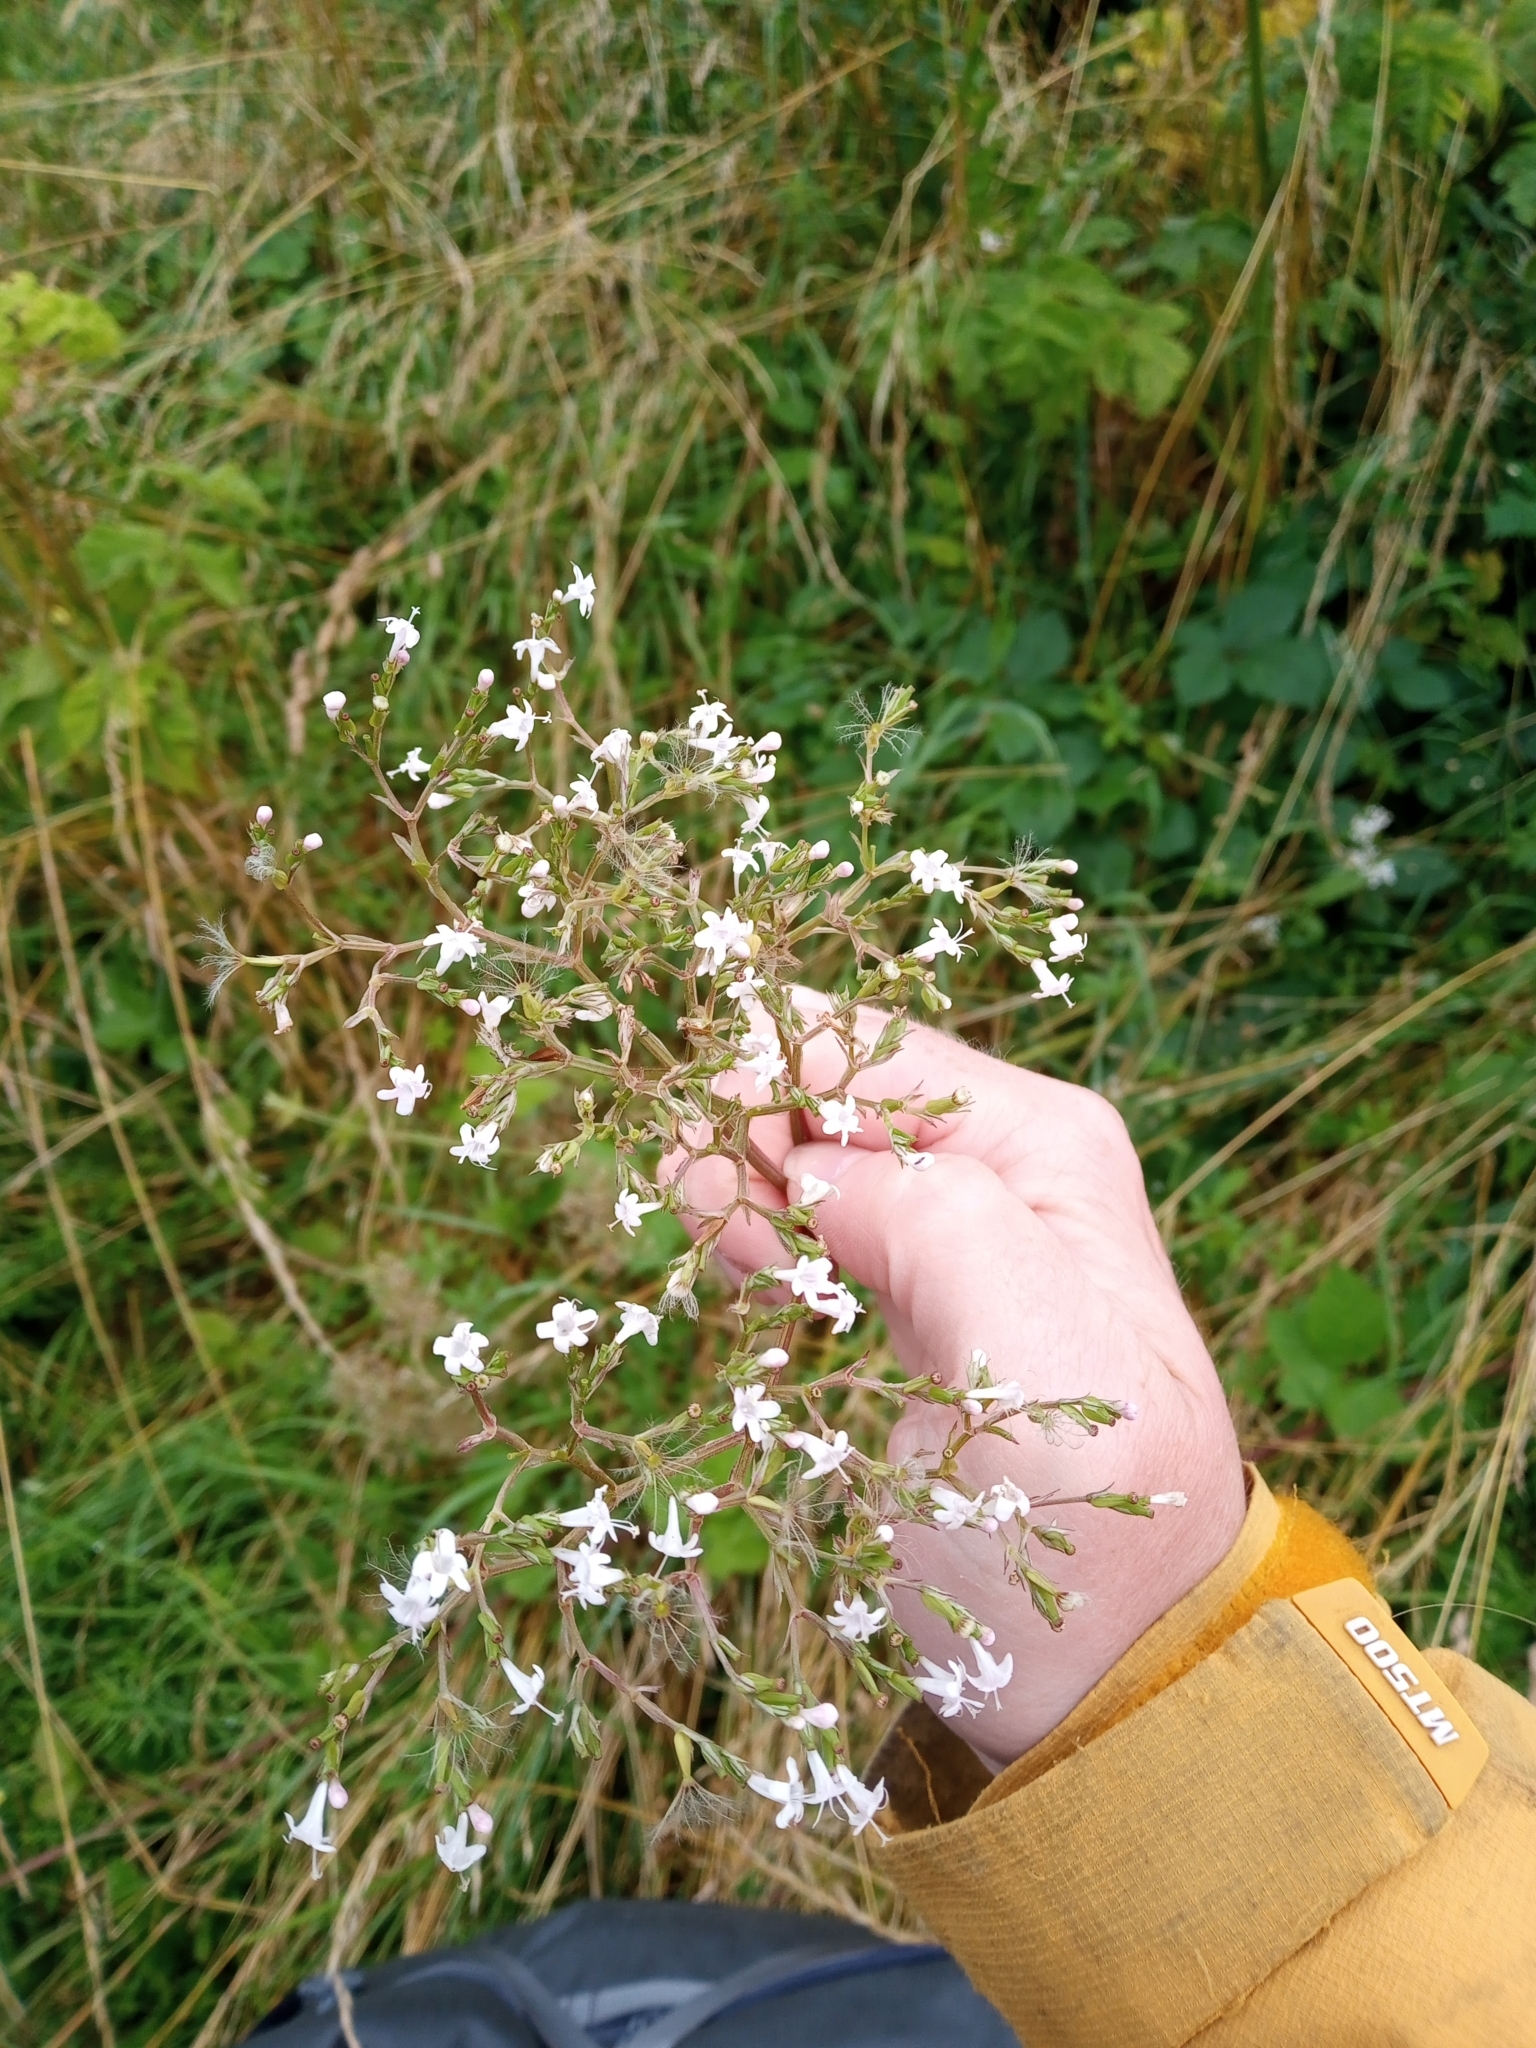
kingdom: Plantae
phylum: Tracheophyta
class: Magnoliopsida
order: Dipsacales
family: Caprifoliaceae
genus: Valeriana
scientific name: Valeriana officinalis
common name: Common valerian
